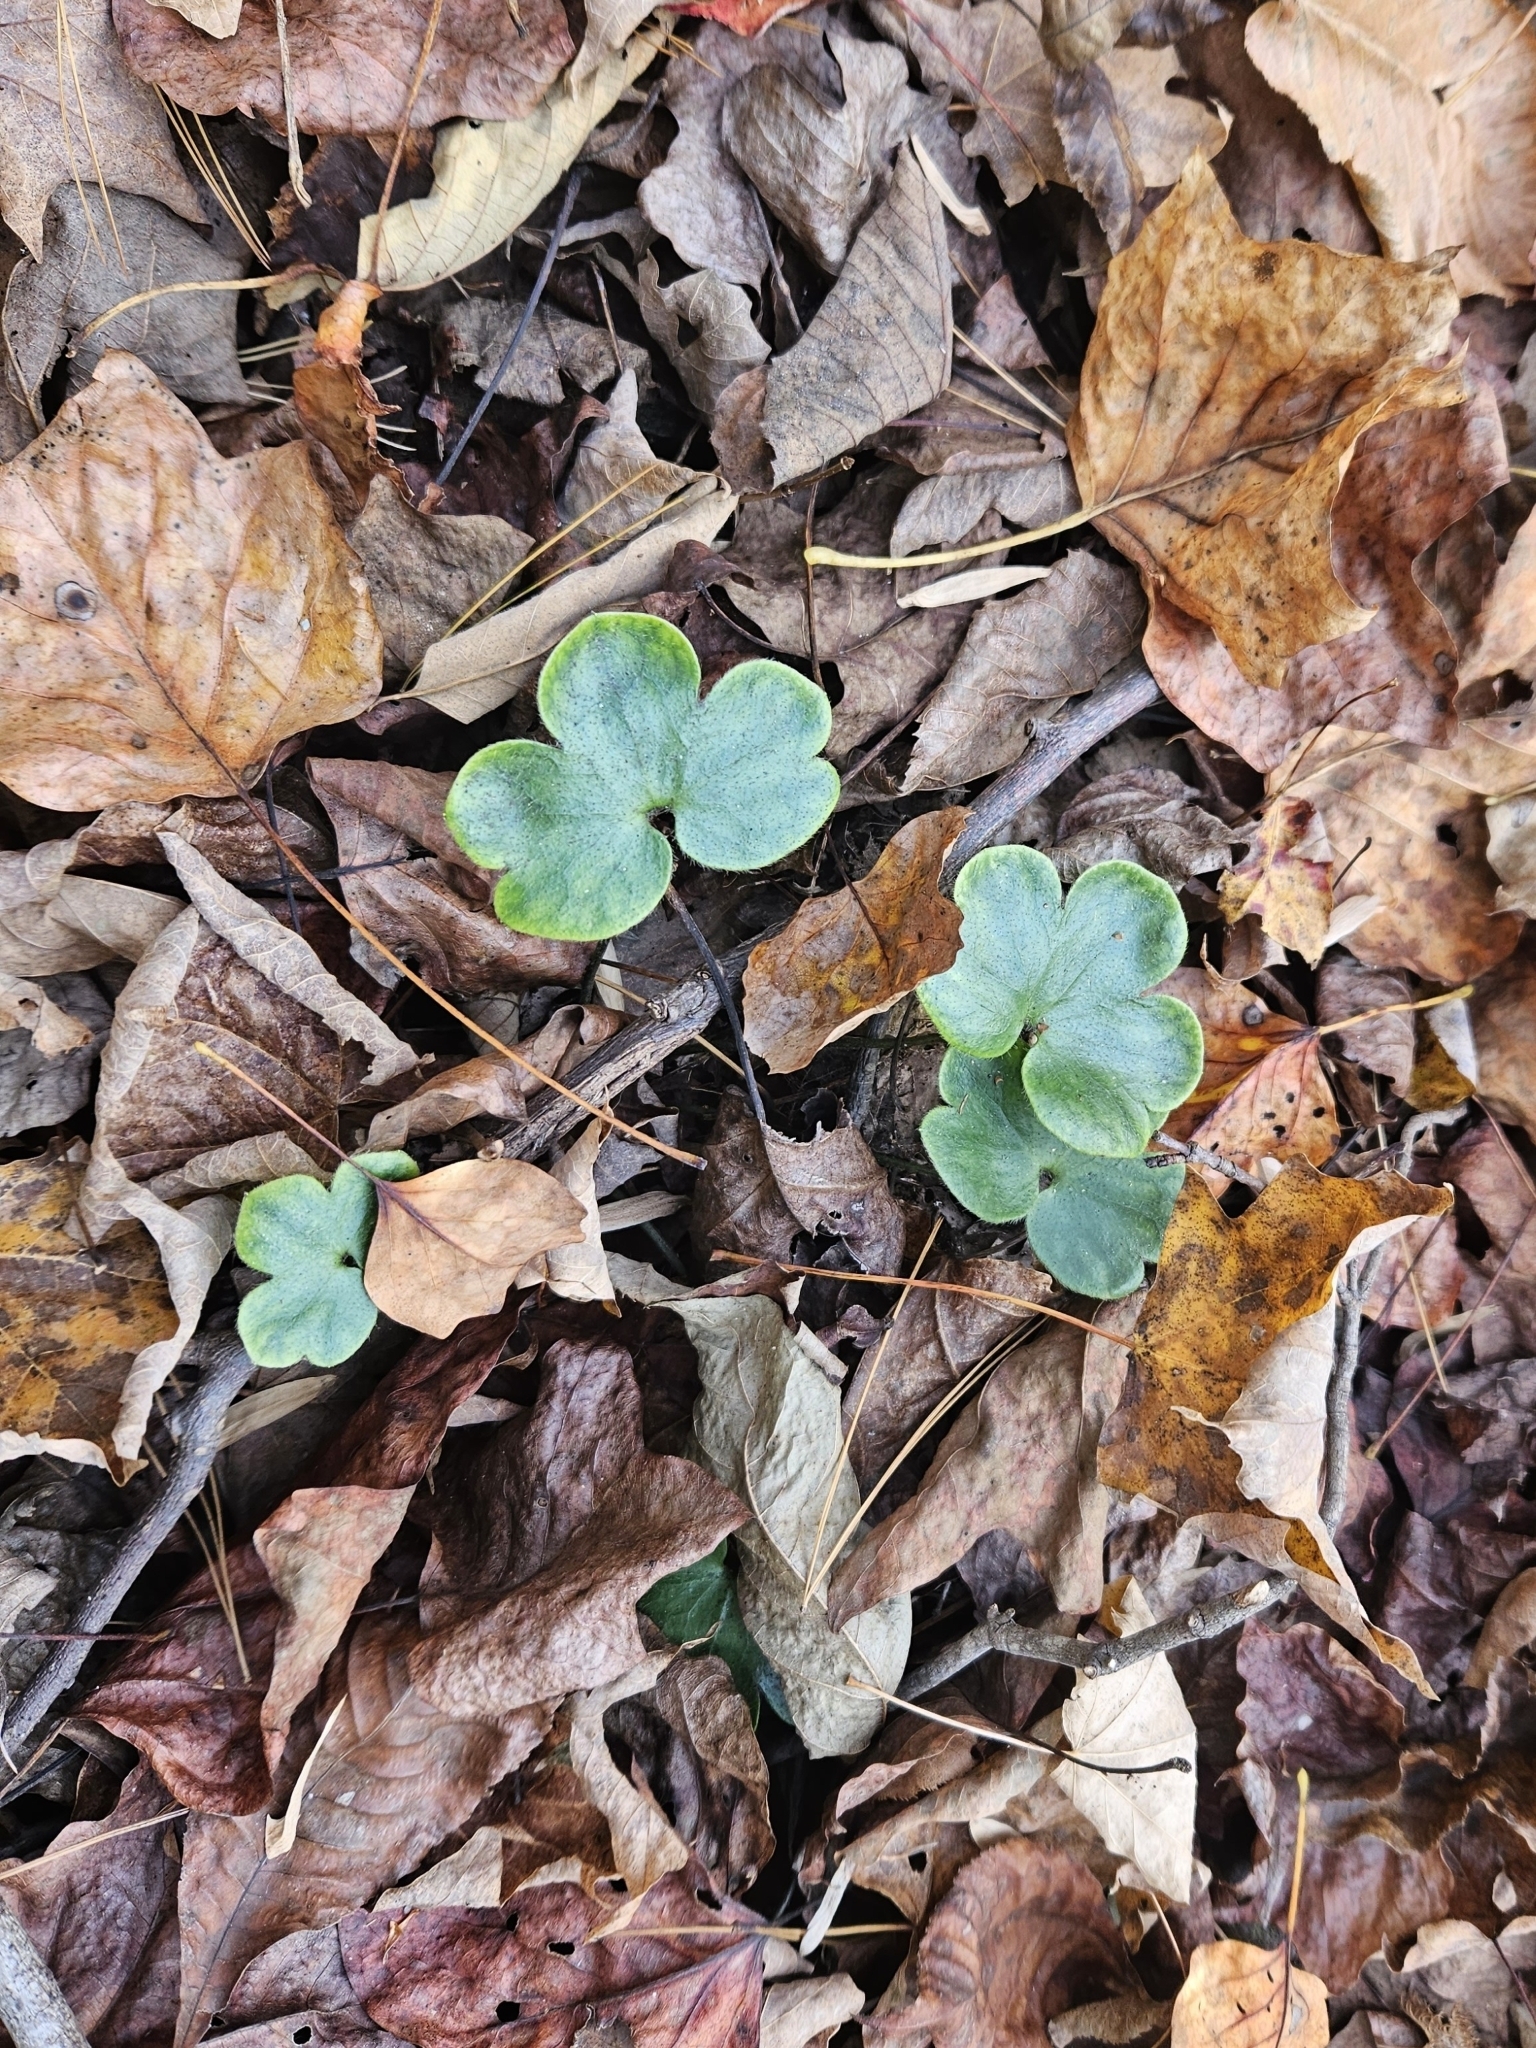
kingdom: Plantae
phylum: Tracheophyta
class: Magnoliopsida
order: Ranunculales
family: Ranunculaceae
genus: Hepatica
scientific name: Hepatica americana
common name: American hepatica
